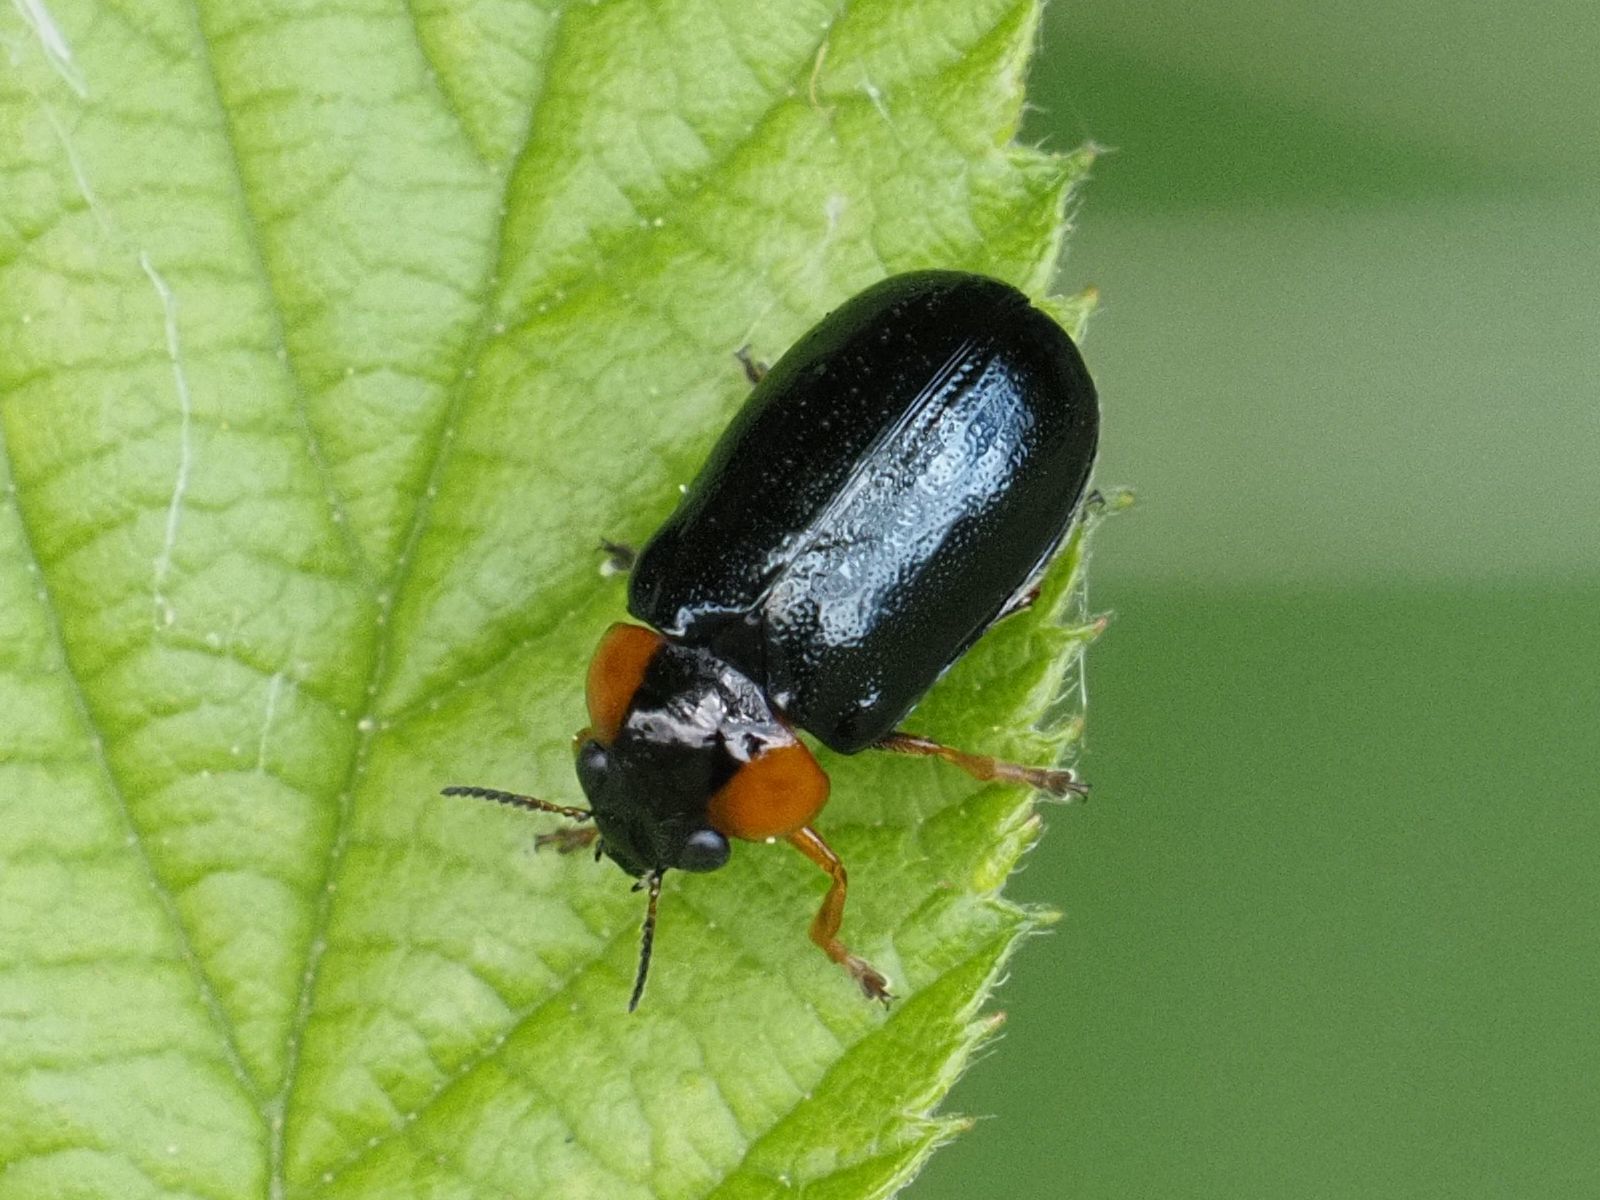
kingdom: Animalia
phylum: Arthropoda
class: Insecta
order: Coleoptera
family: Chrysomelidae
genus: Smaragdina
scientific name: Smaragdina aurita
